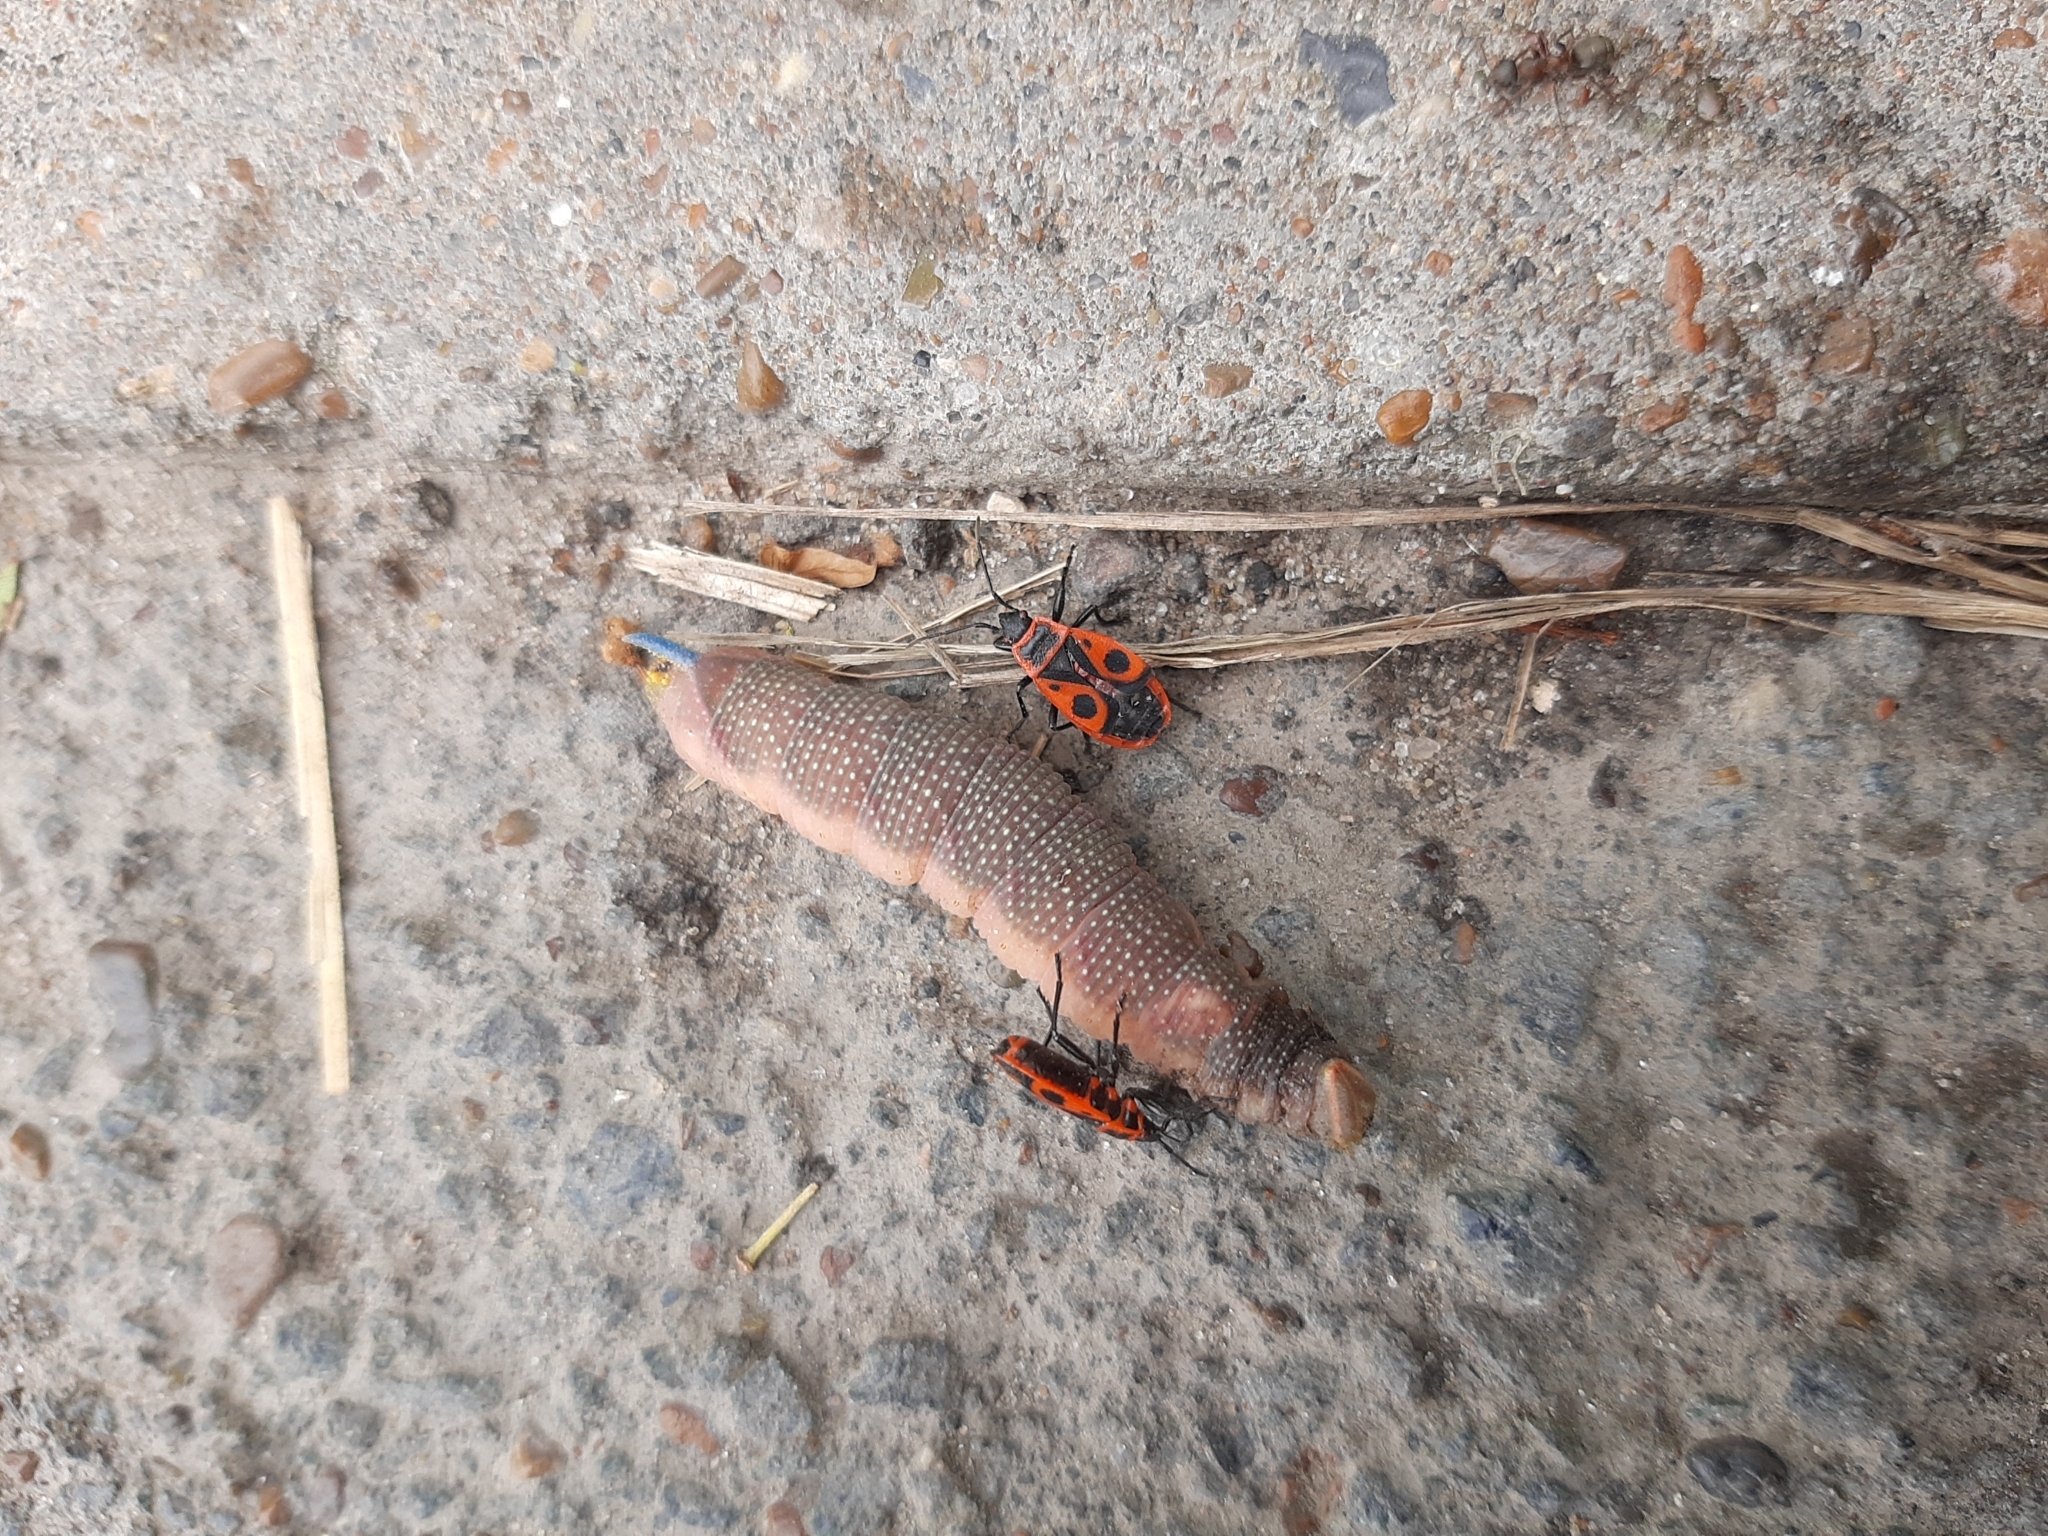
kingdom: Animalia
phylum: Arthropoda
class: Insecta
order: Lepidoptera
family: Sphingidae
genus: Mimas
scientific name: Mimas tiliae
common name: Lime hawk-moth
